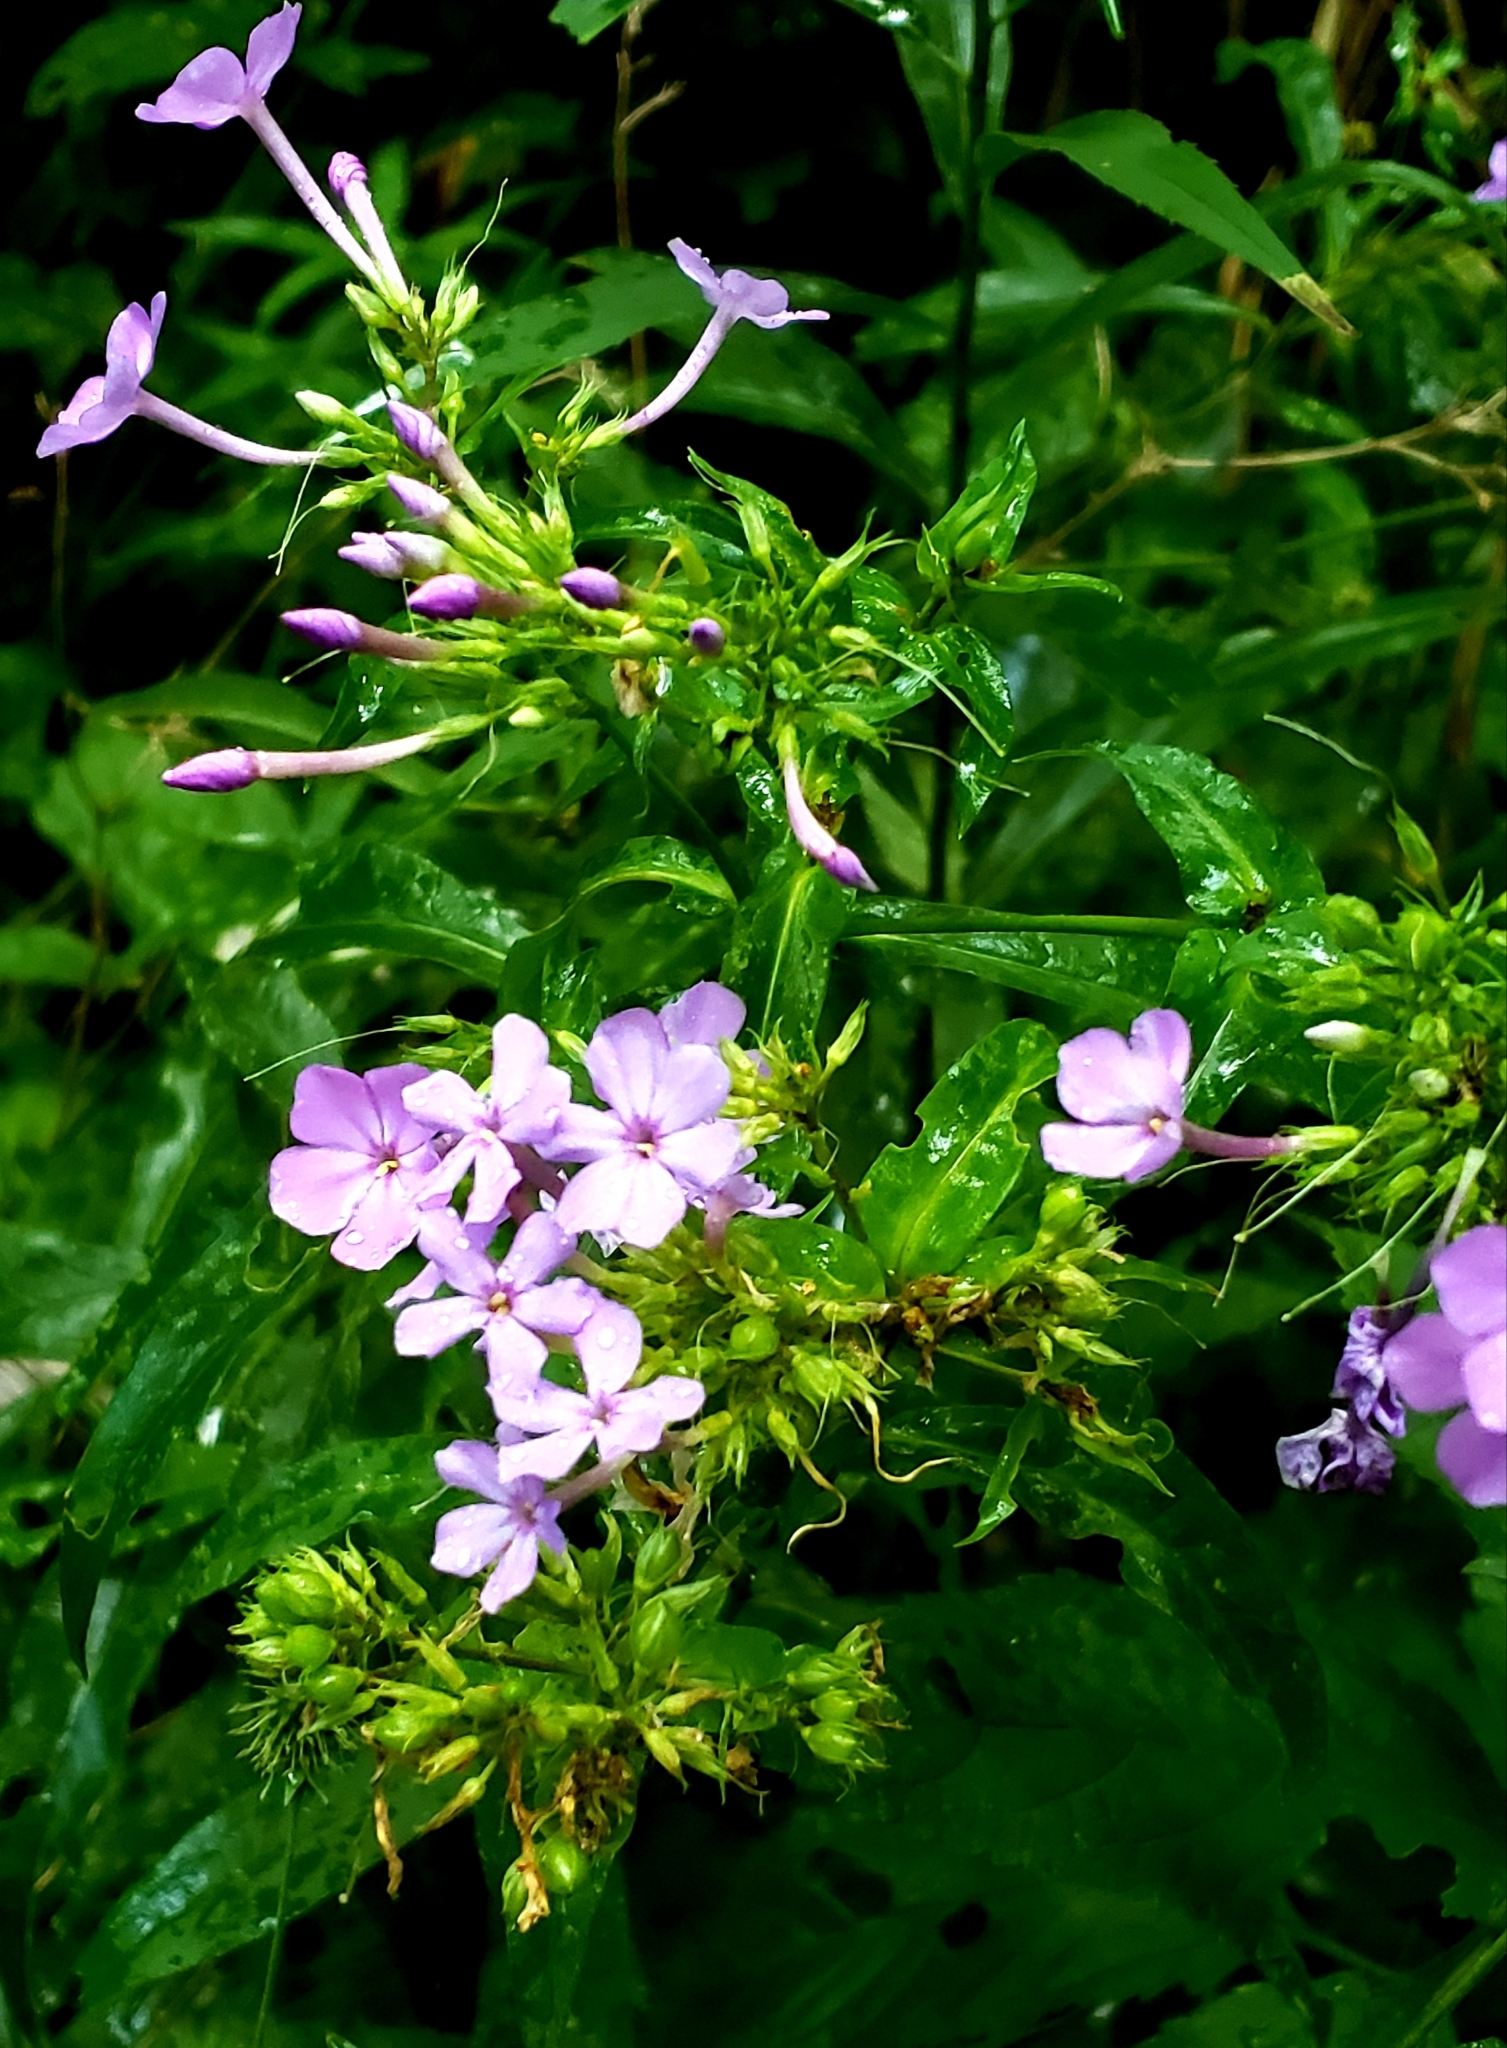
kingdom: Plantae
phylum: Tracheophyta
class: Magnoliopsida
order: Ericales
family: Polemoniaceae
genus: Phlox
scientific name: Phlox paniculata
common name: Fall phlox
